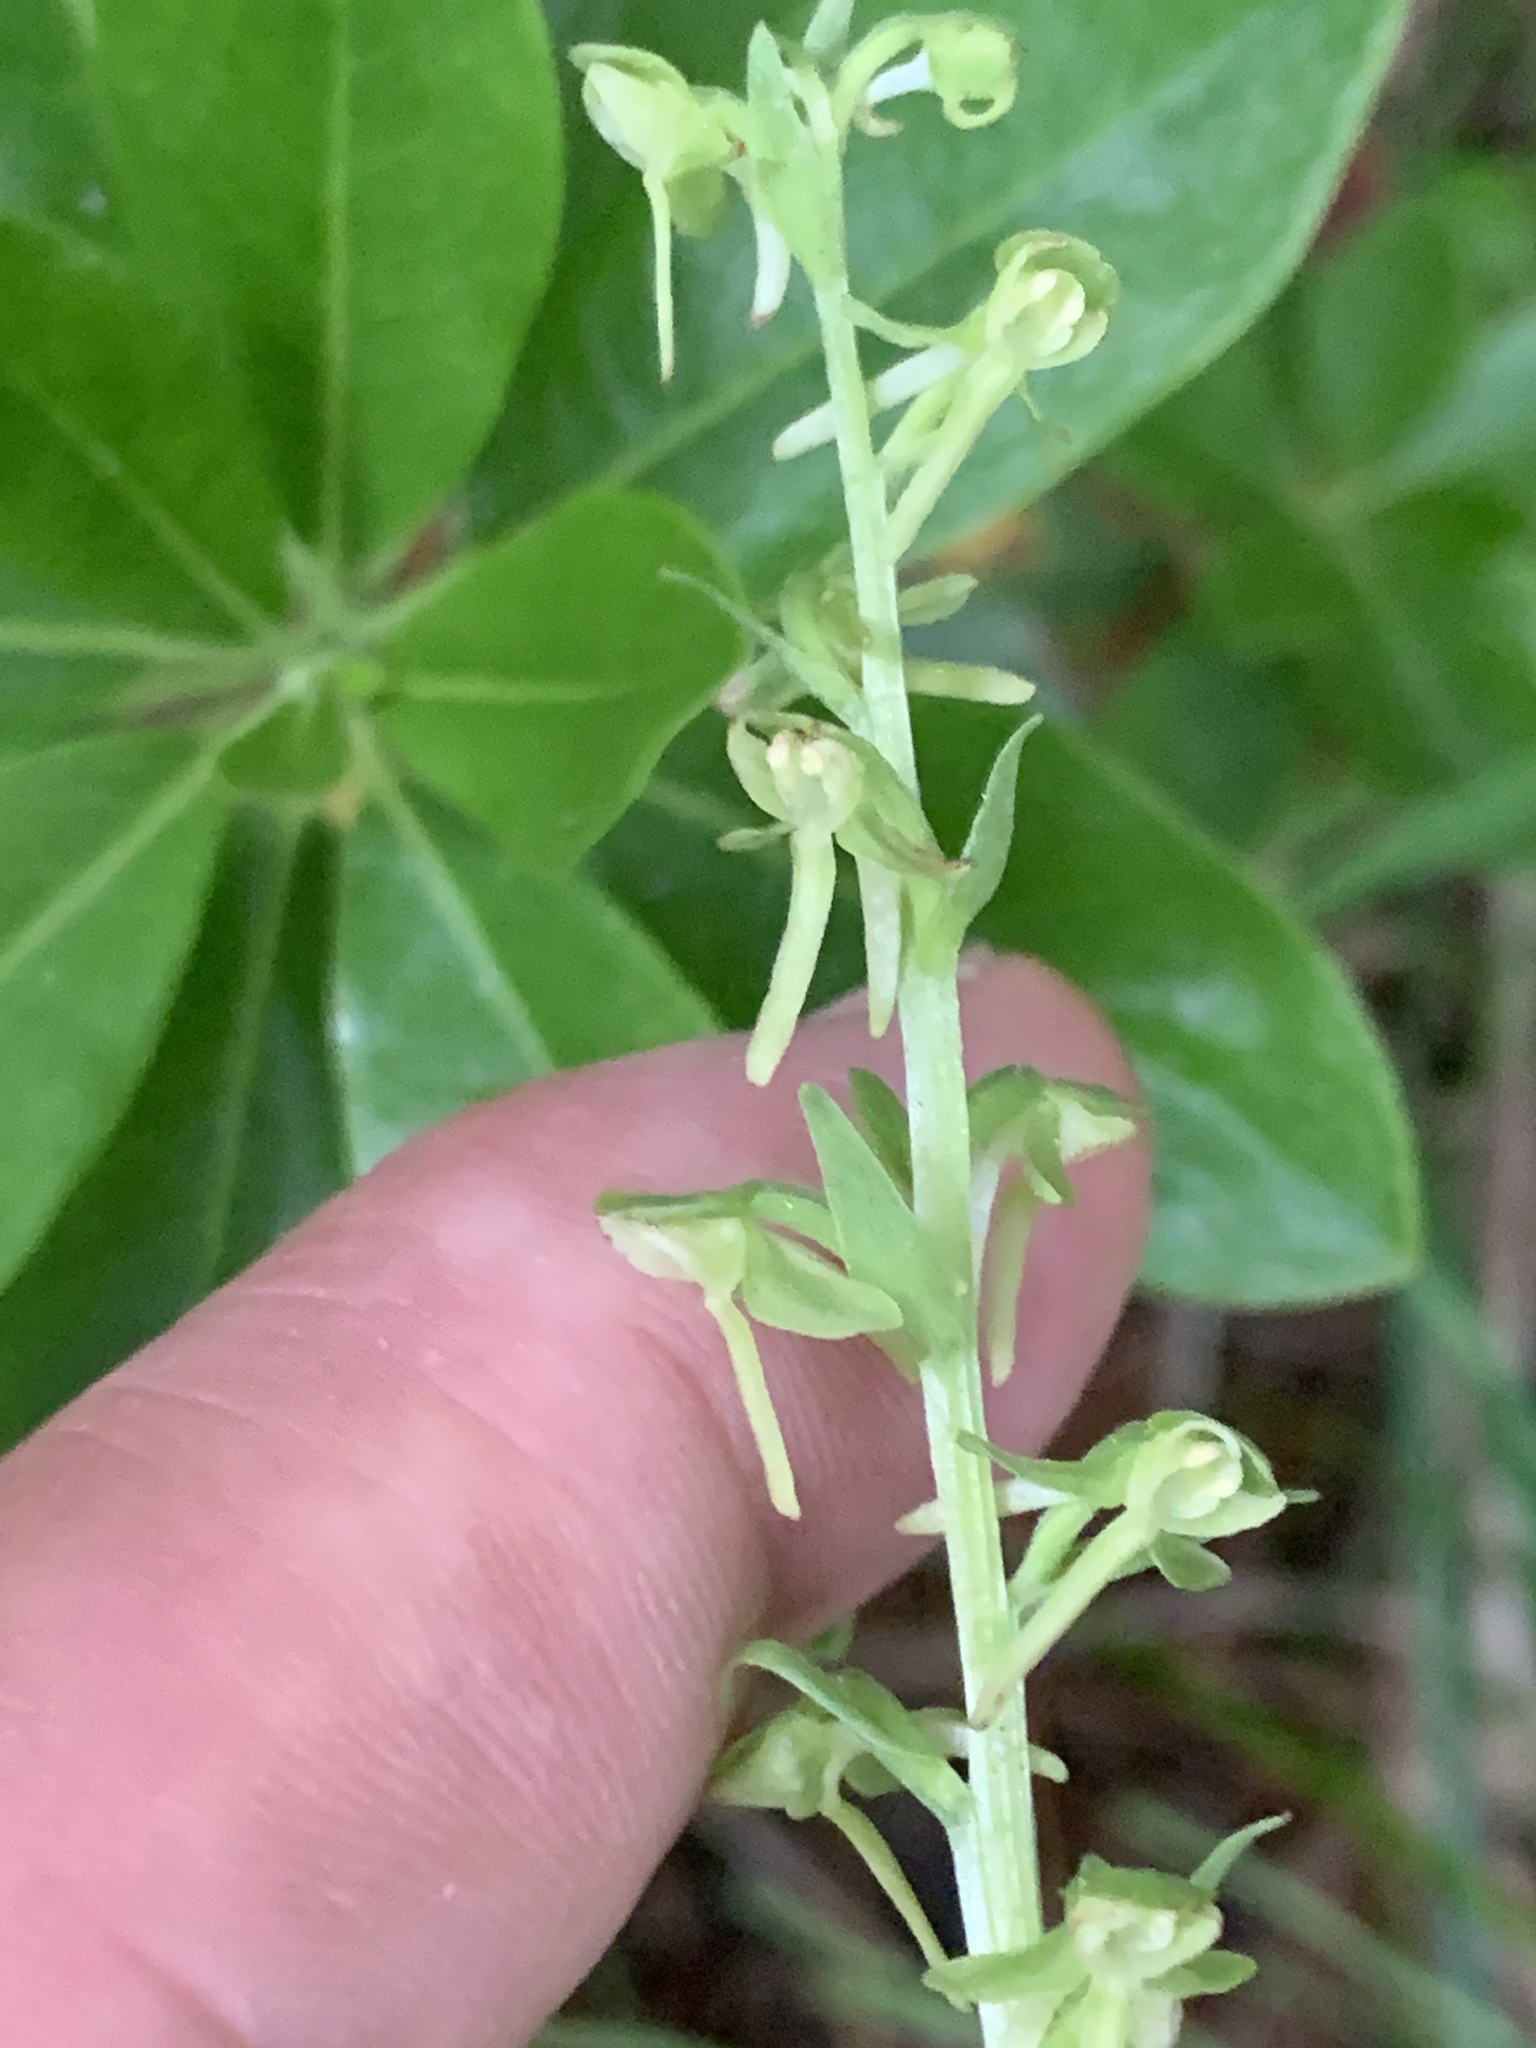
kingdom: Plantae
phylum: Tracheophyta
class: Liliopsida
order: Asparagales
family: Orchidaceae
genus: Platanthera
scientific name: Platanthera sparsiflora
